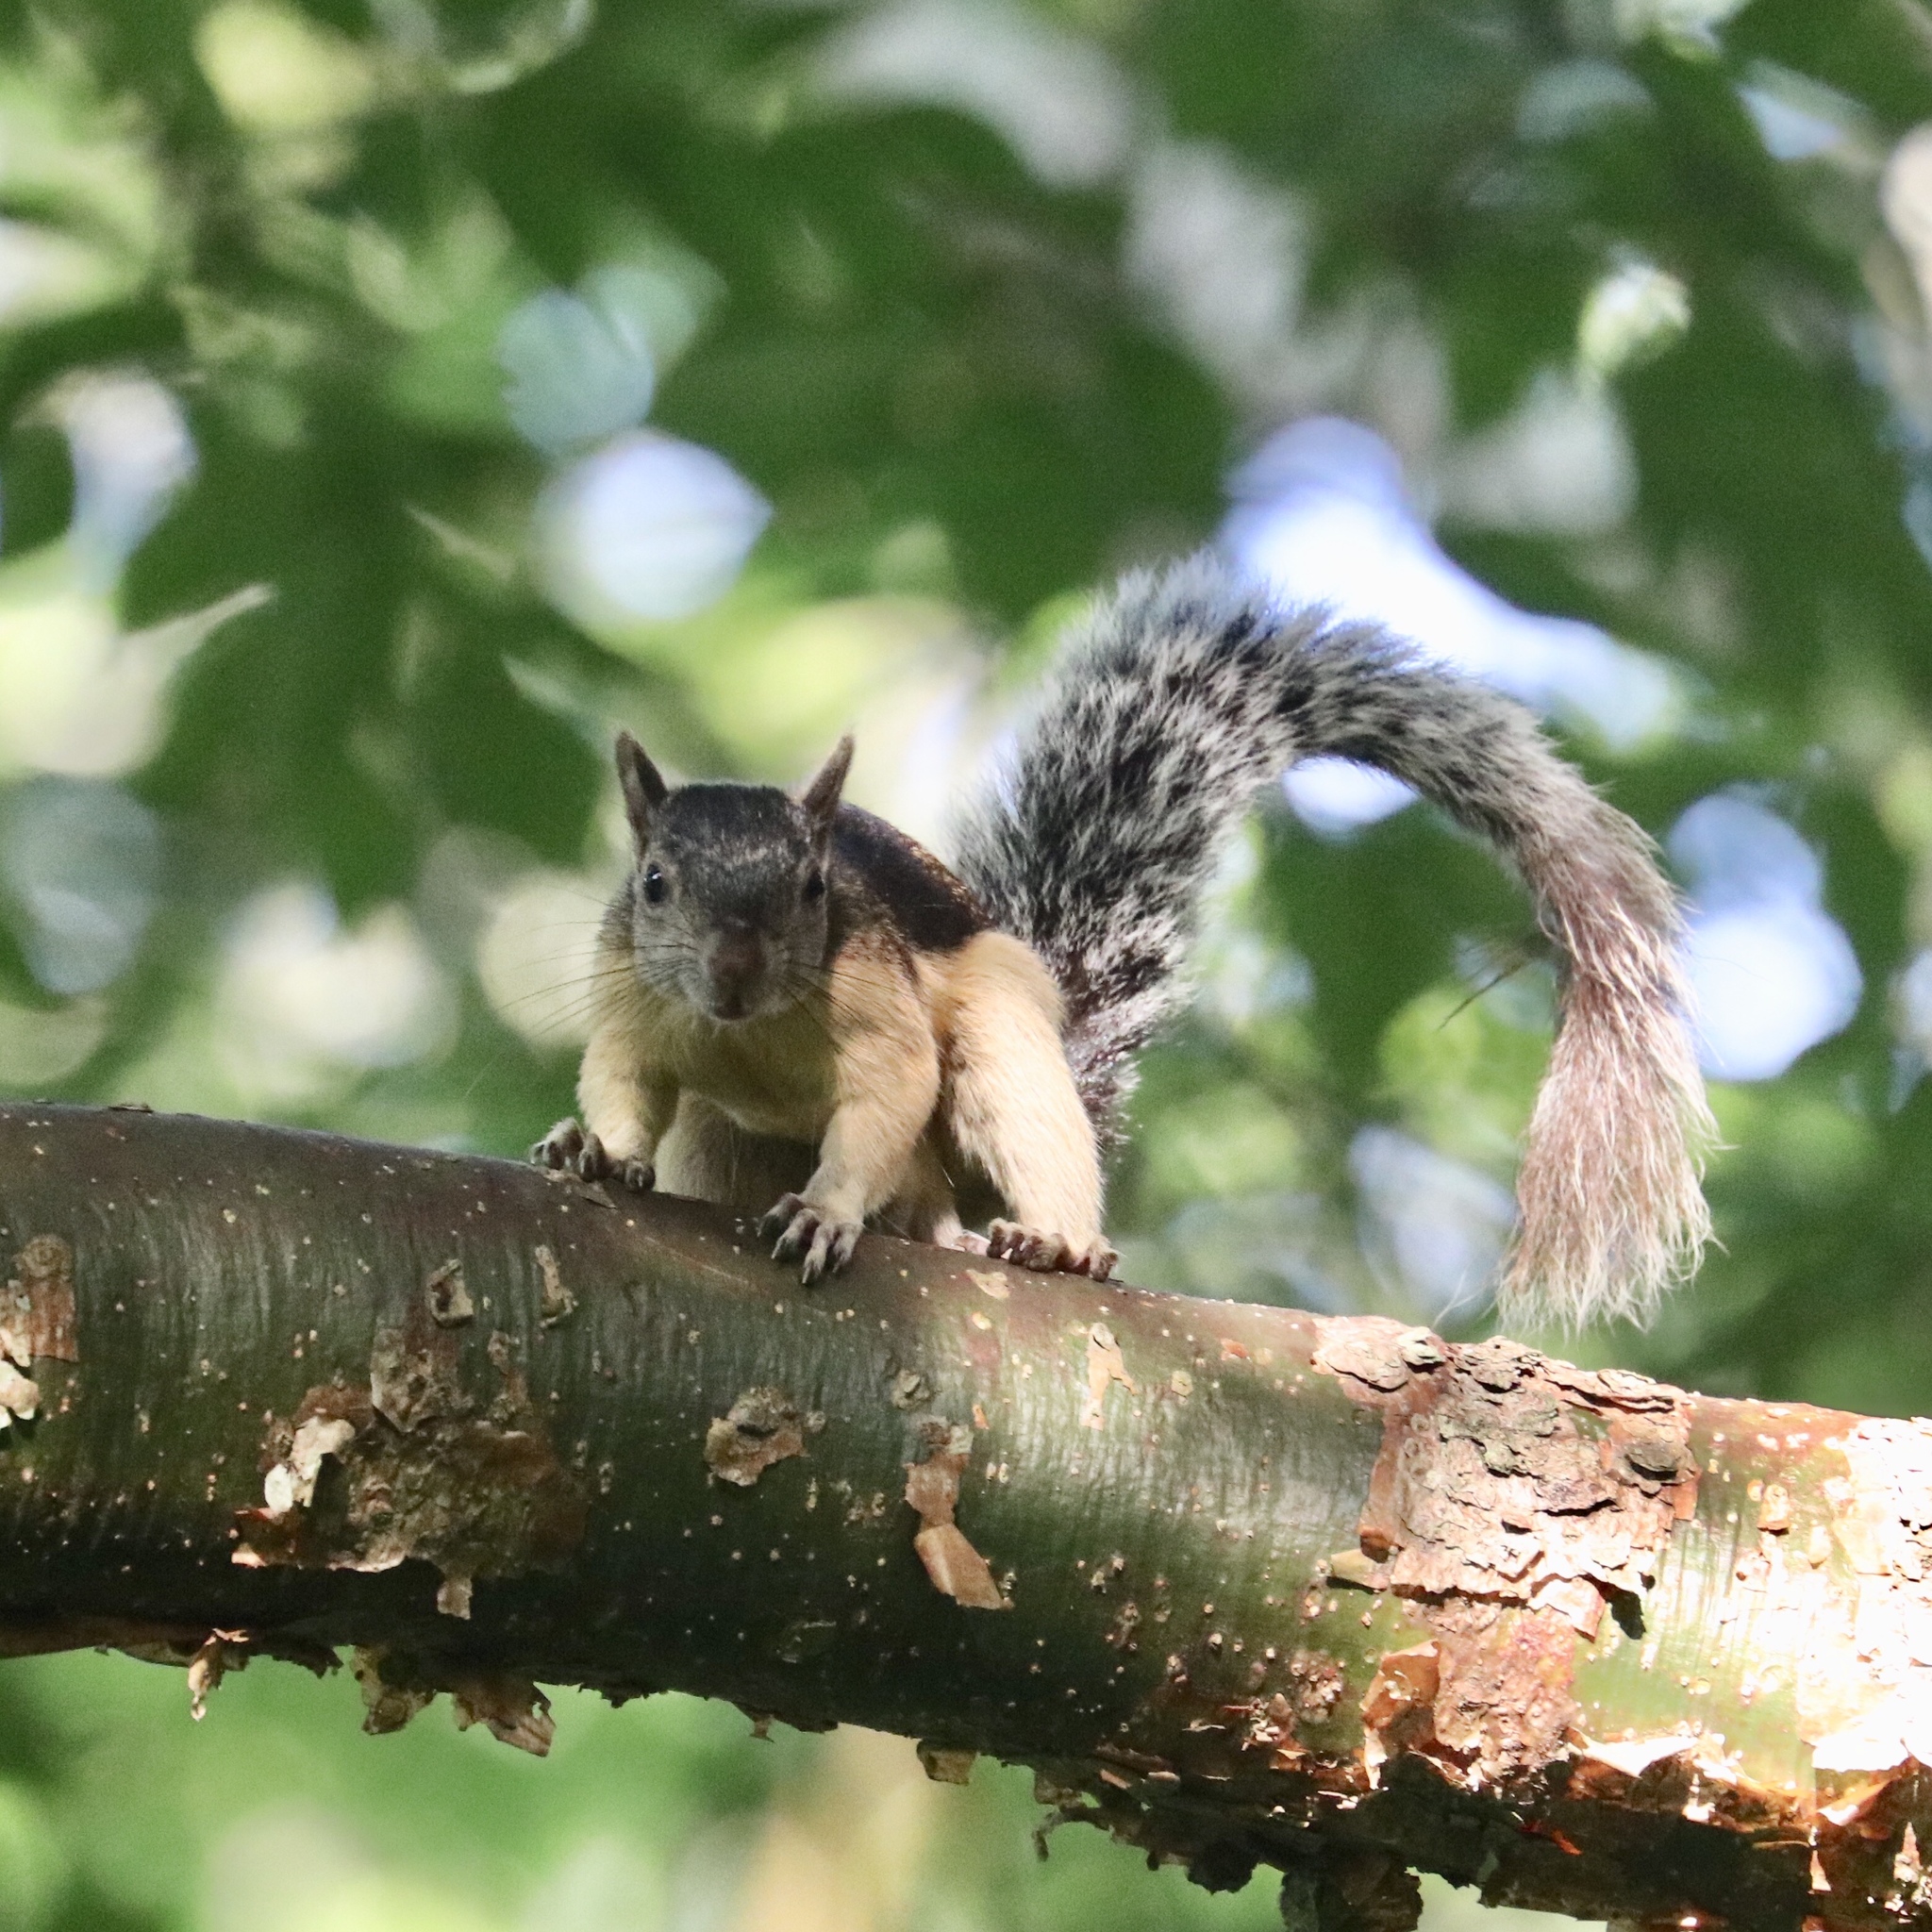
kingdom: Animalia
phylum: Chordata
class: Mammalia
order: Rodentia
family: Sciuridae
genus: Sciurus
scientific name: Sciurus variegatoides
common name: Variegated squirrel
